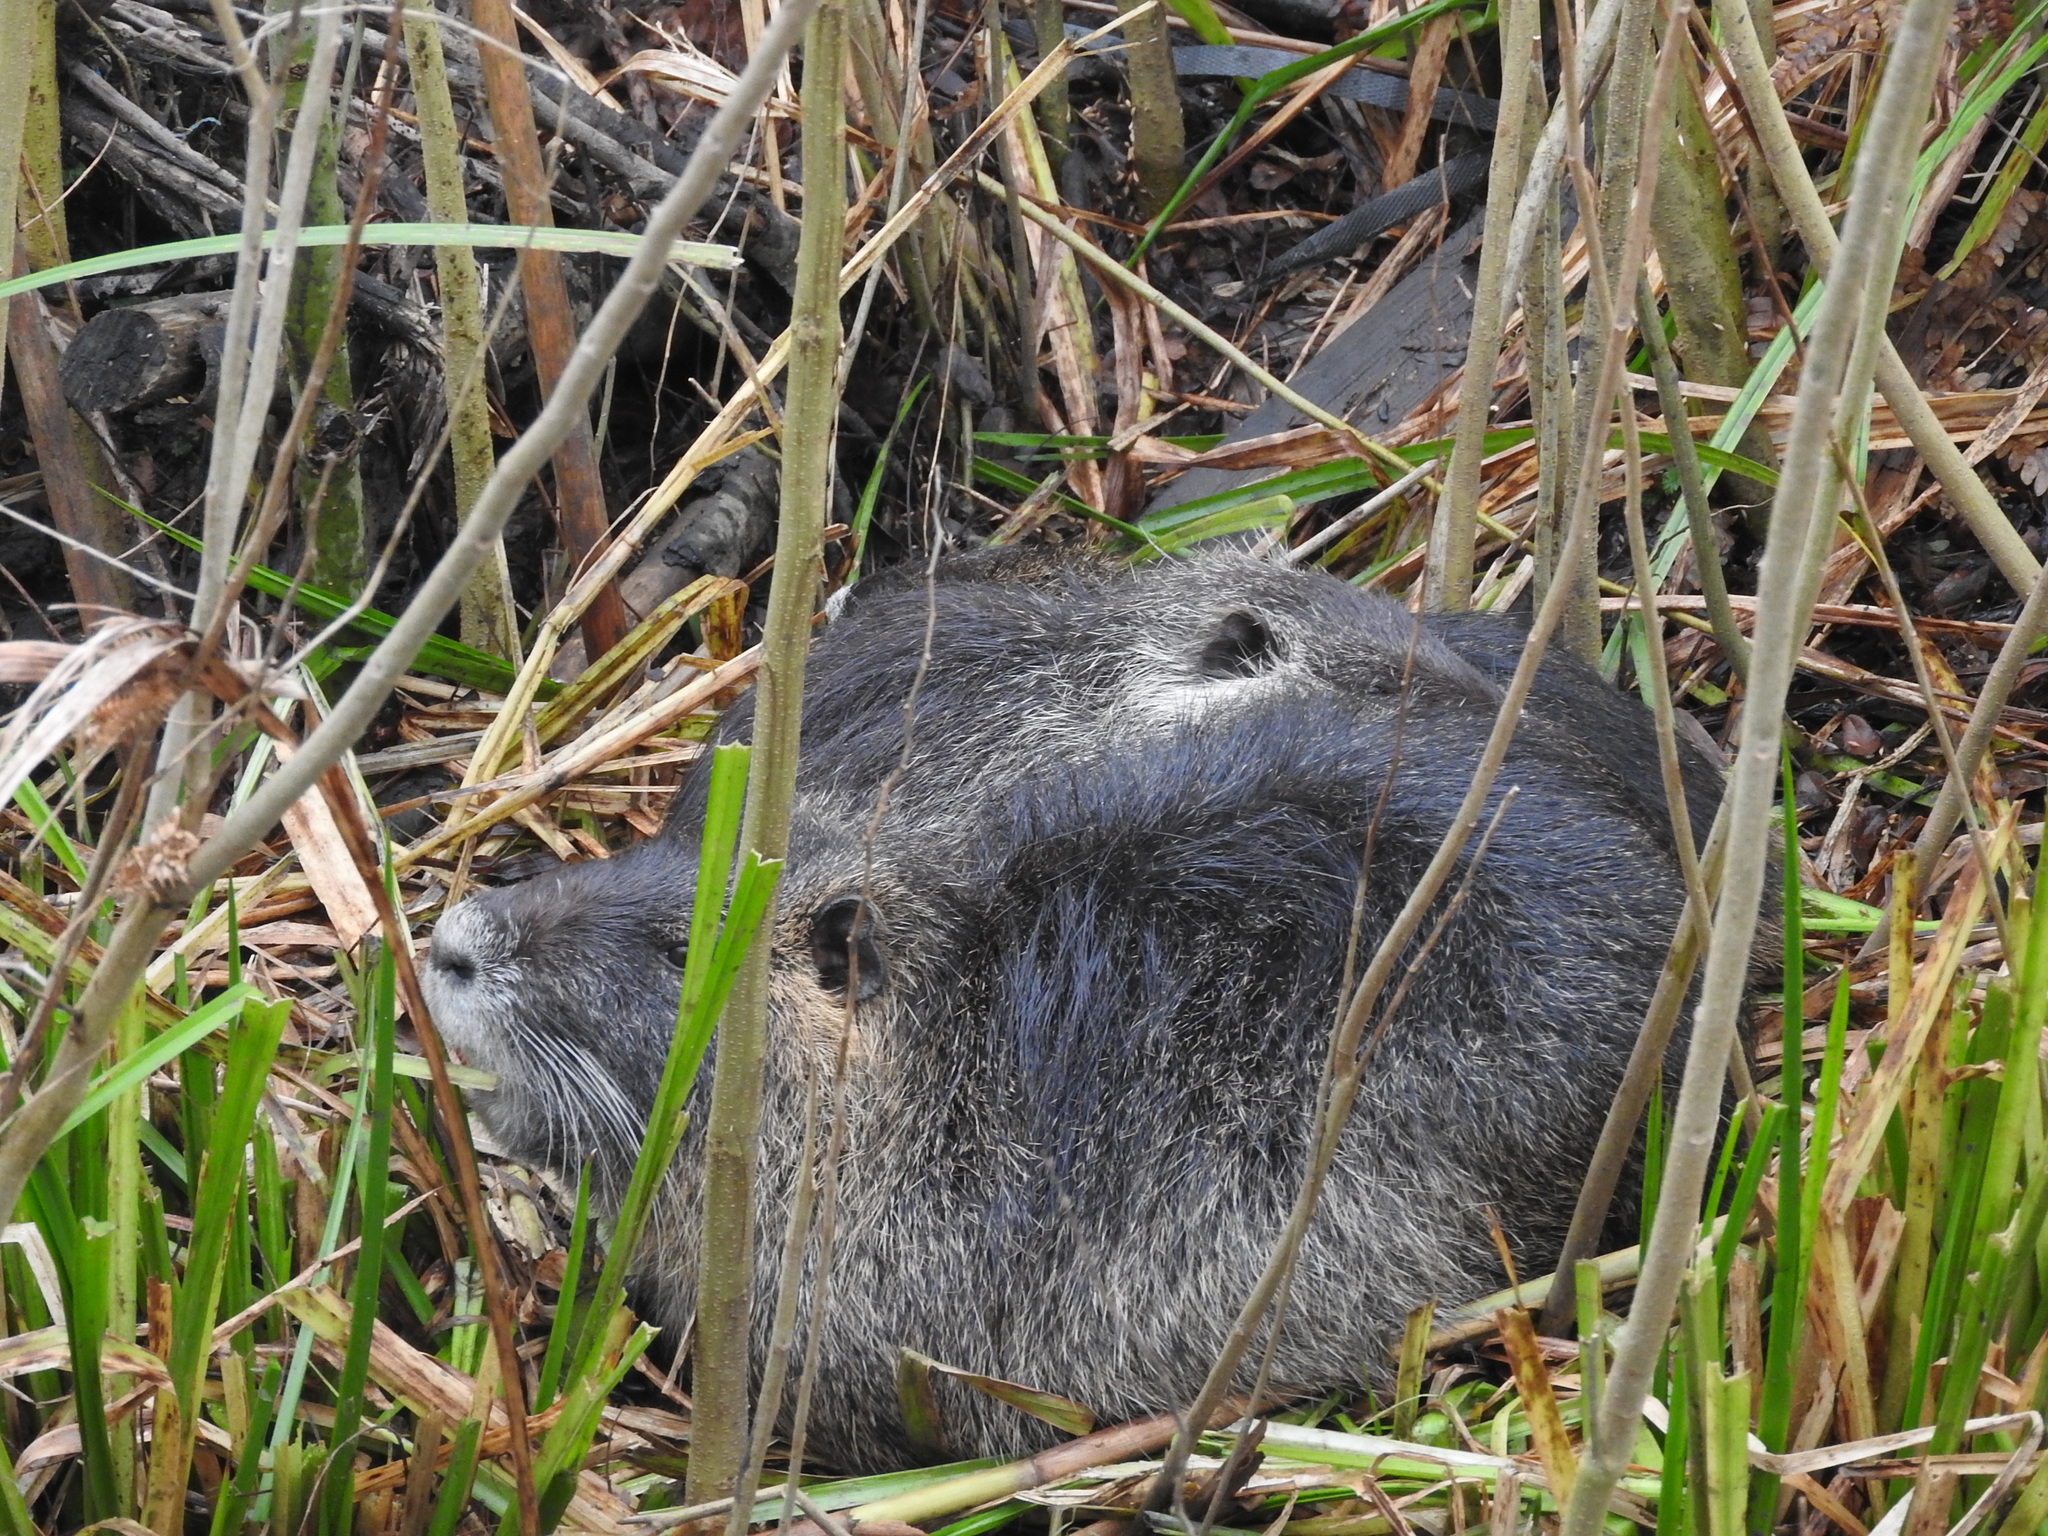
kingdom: Animalia
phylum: Chordata
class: Mammalia
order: Rodentia
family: Myocastoridae
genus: Myocastor
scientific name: Myocastor coypus
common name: Coypu
